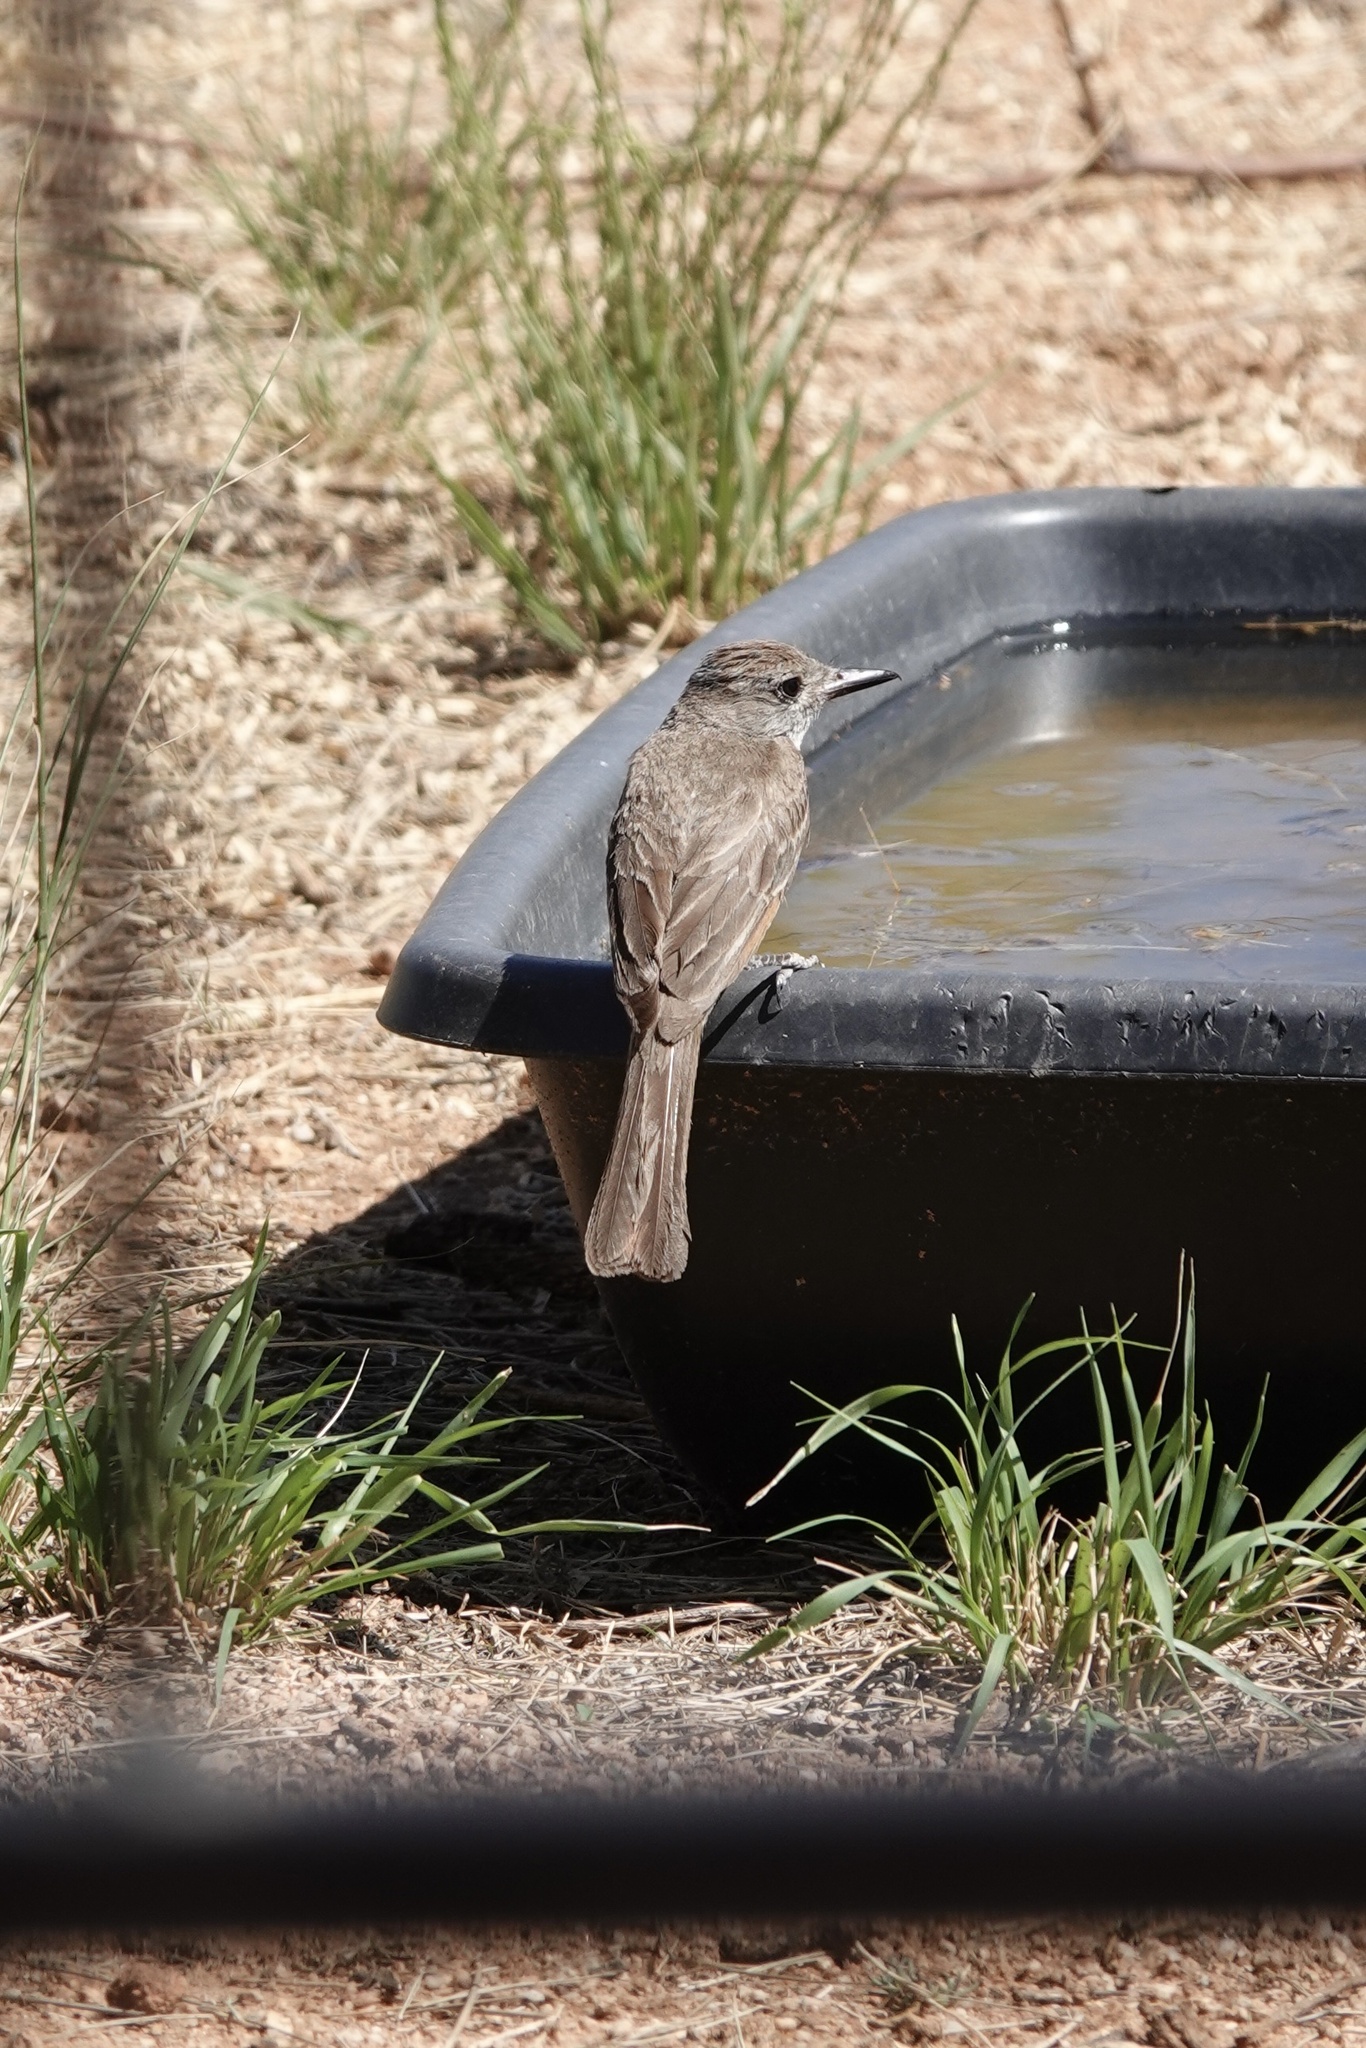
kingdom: Animalia
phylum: Chordata
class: Aves
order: Passeriformes
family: Tyrannidae
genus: Myiarchus
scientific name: Myiarchus cinerascens
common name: Ash-throated flycatcher
